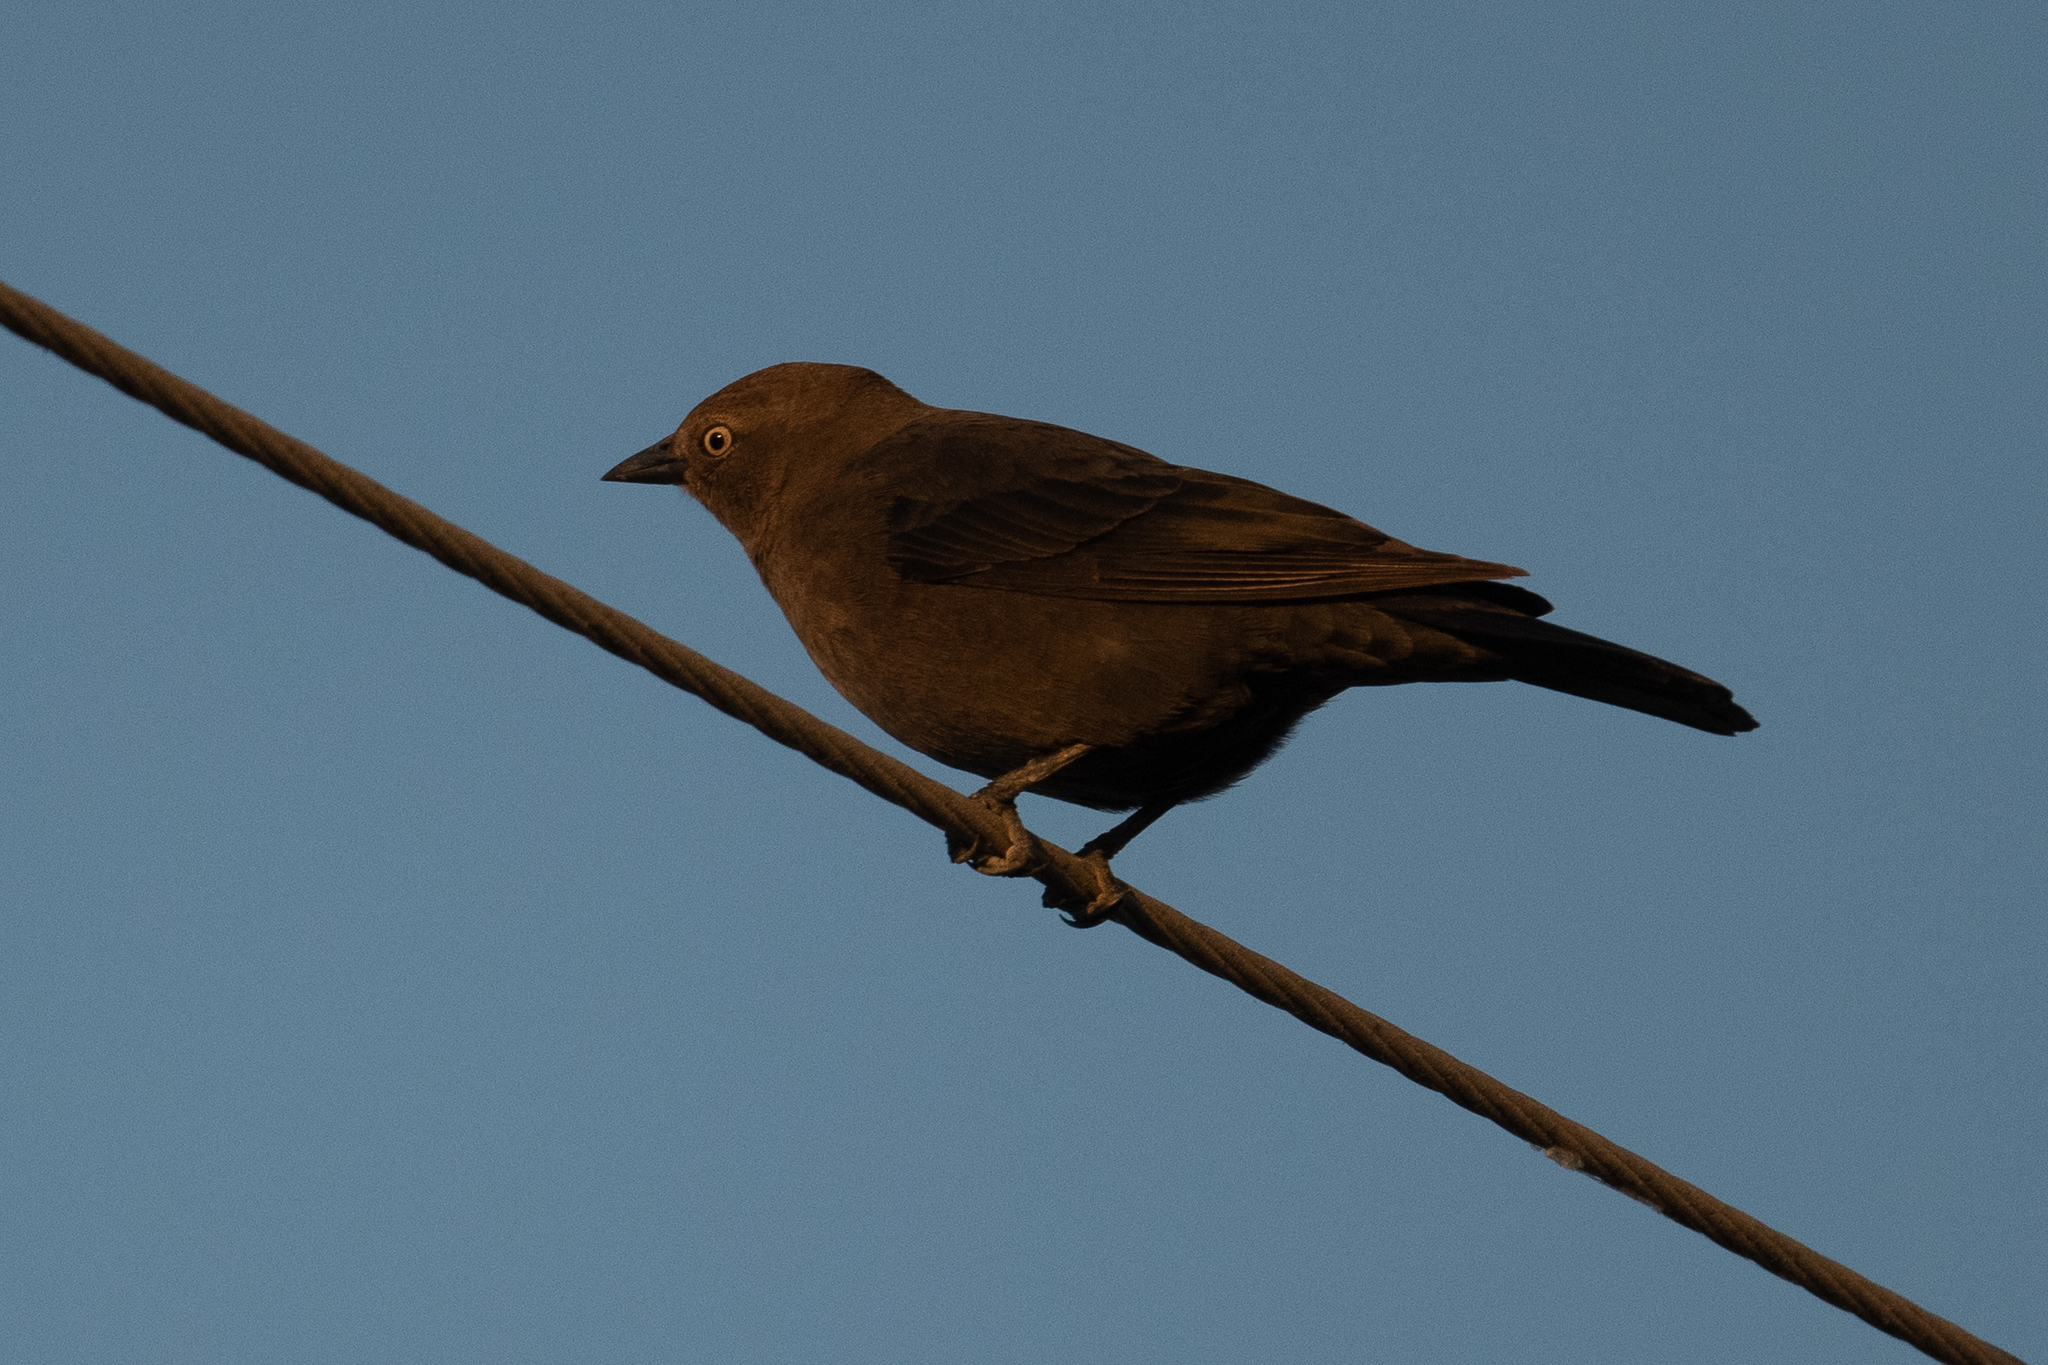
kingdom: Animalia
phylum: Chordata
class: Aves
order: Passeriformes
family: Icteridae
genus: Euphagus
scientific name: Euphagus cyanocephalus
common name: Brewer's blackbird
